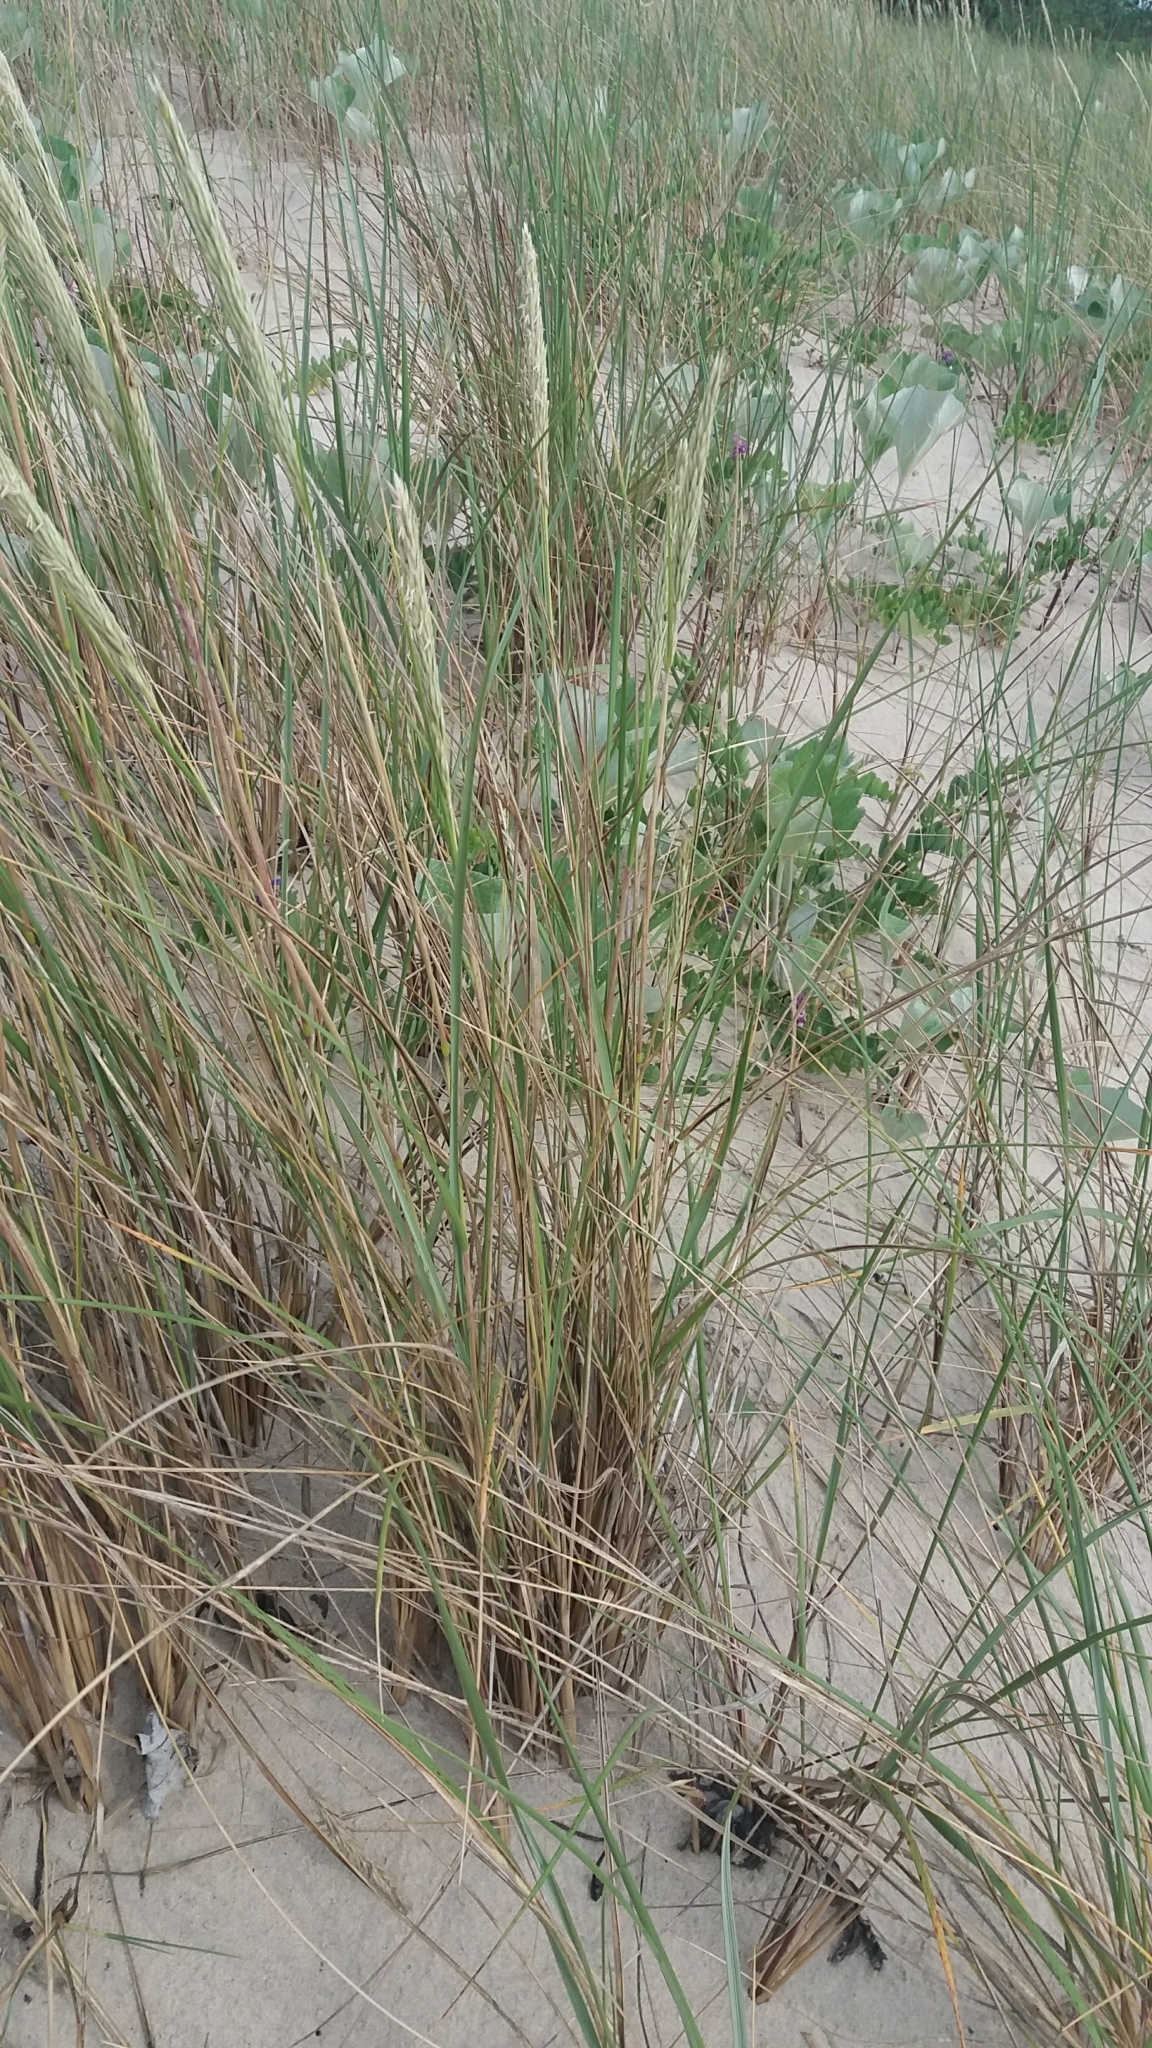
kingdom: Plantae
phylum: Tracheophyta
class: Liliopsida
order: Poales
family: Poaceae
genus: Calamagrostis
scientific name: Calamagrostis arenaria
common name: European beachgrass
